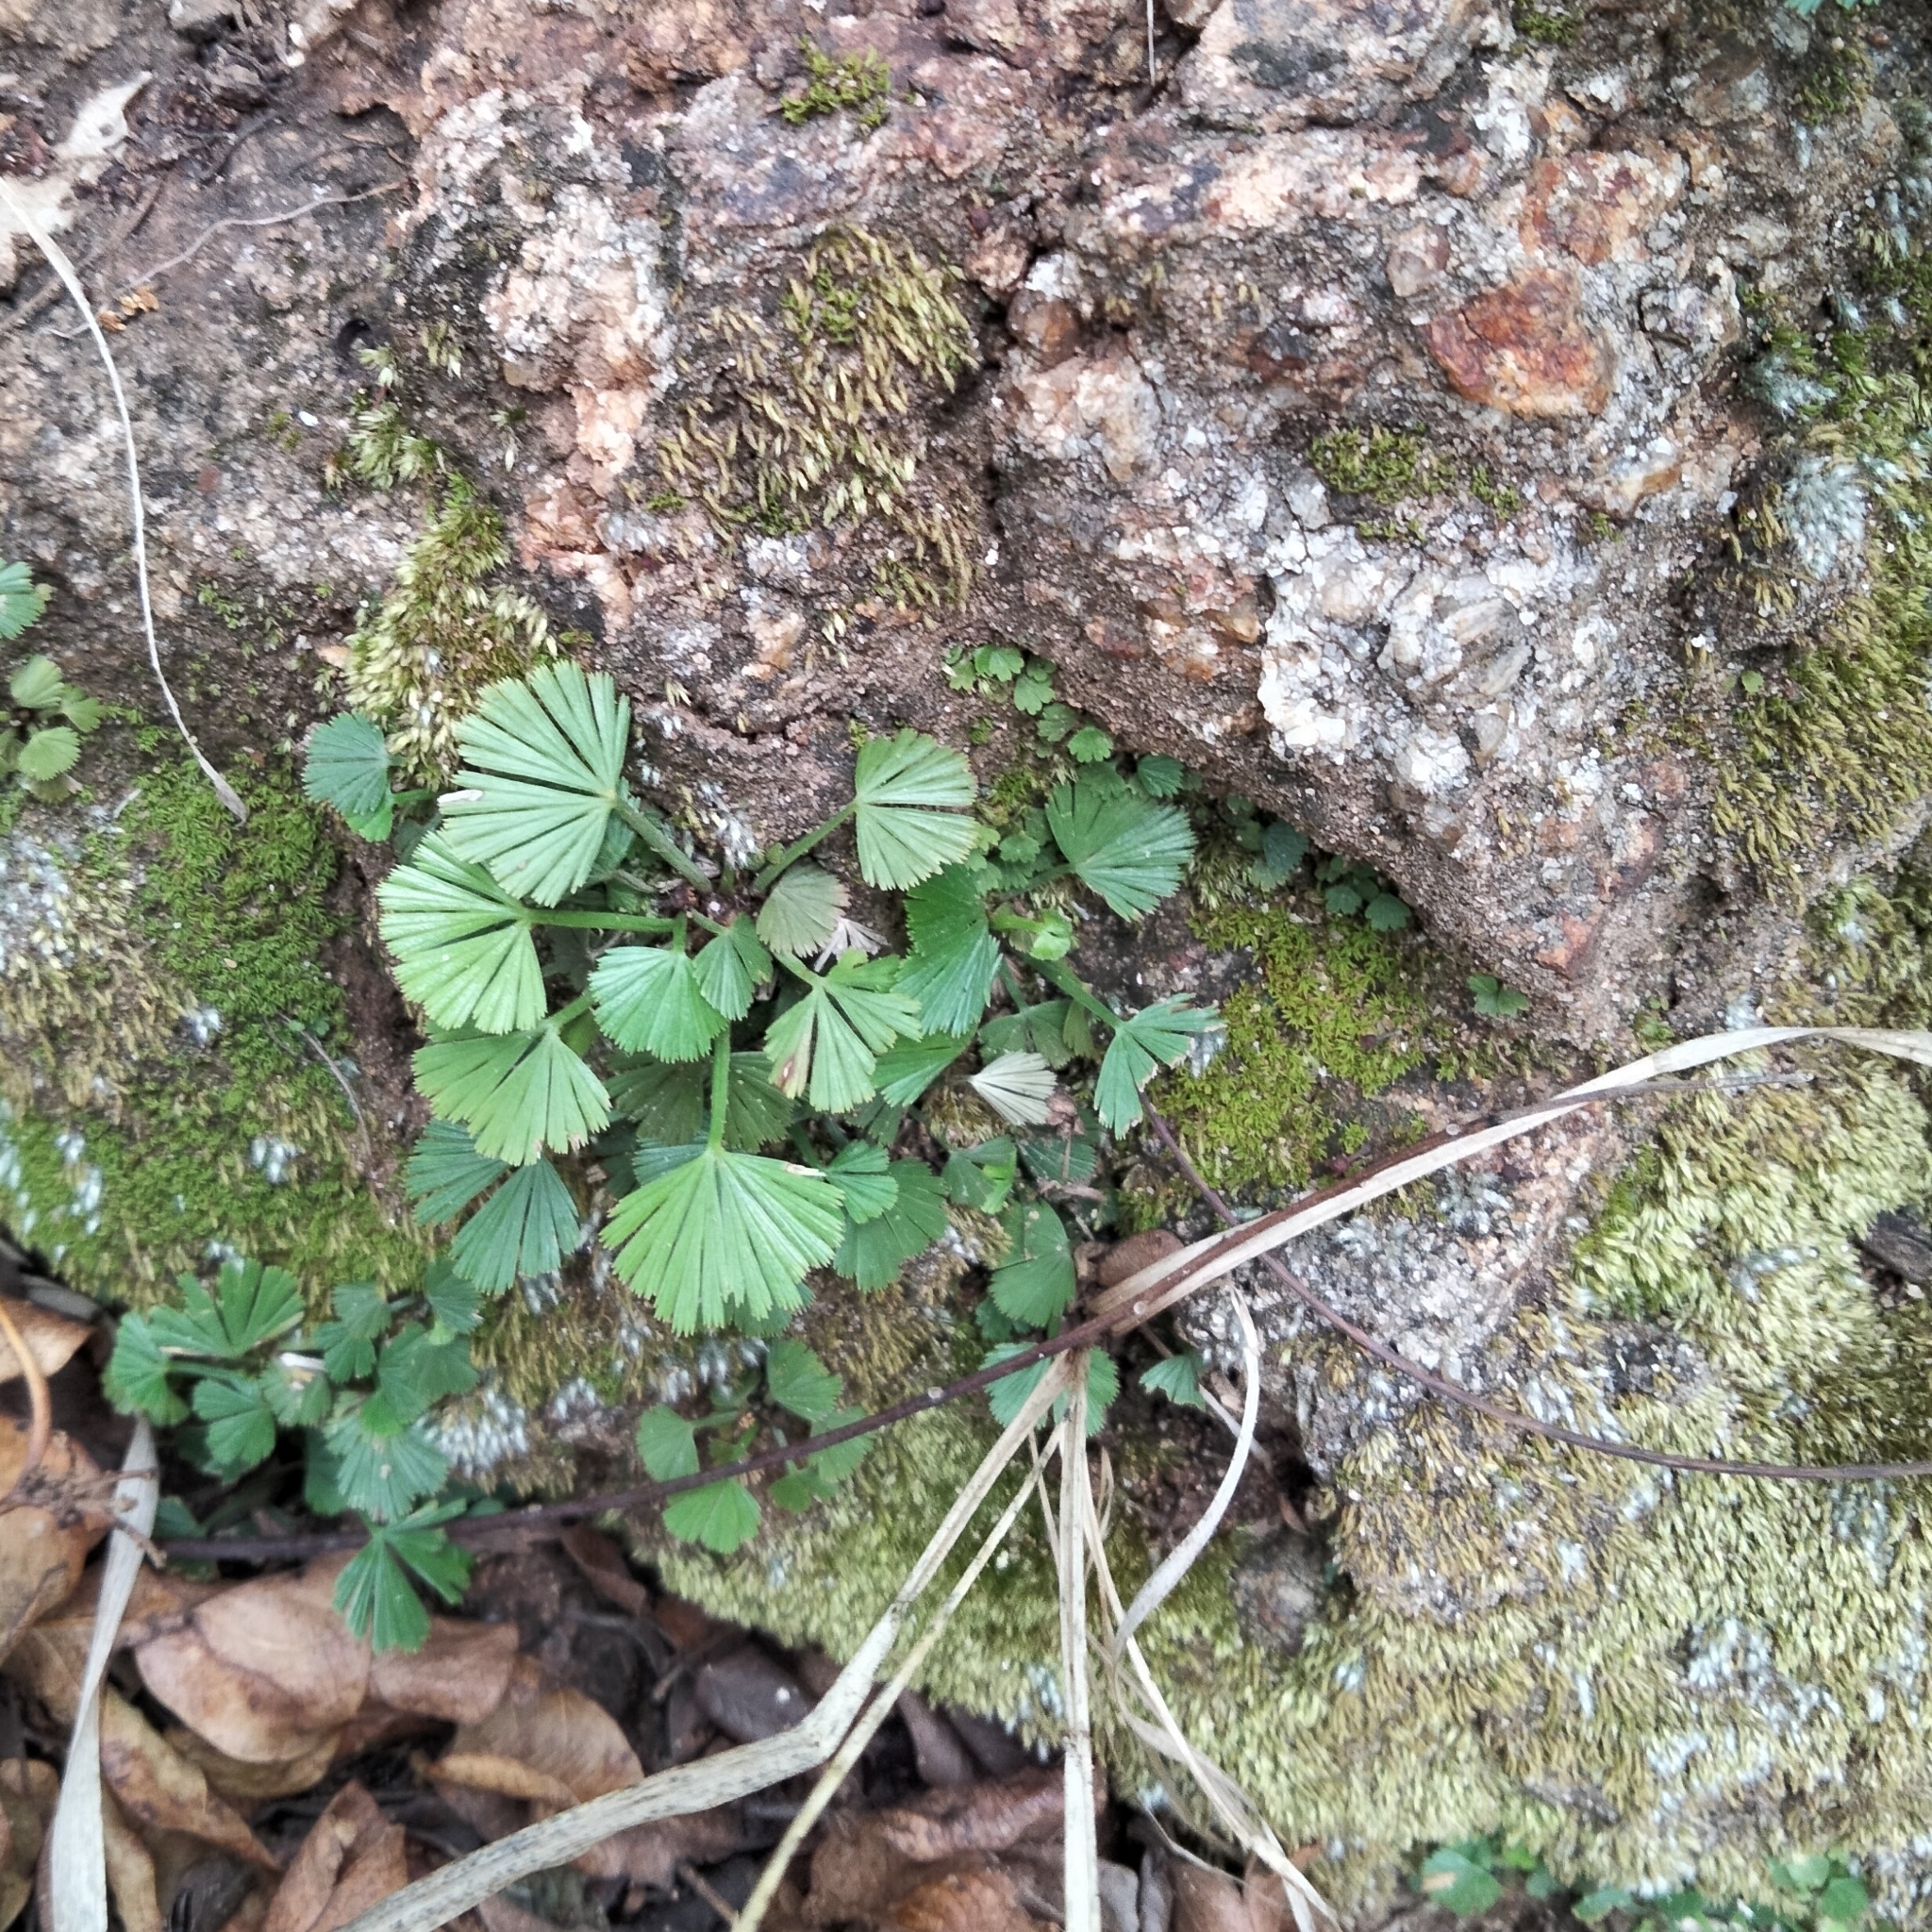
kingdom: Plantae
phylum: Tracheophyta
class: Polypodiopsida
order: Polypodiales
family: Pteridaceae
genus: Actiniopteris
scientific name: Actiniopteris radiata
